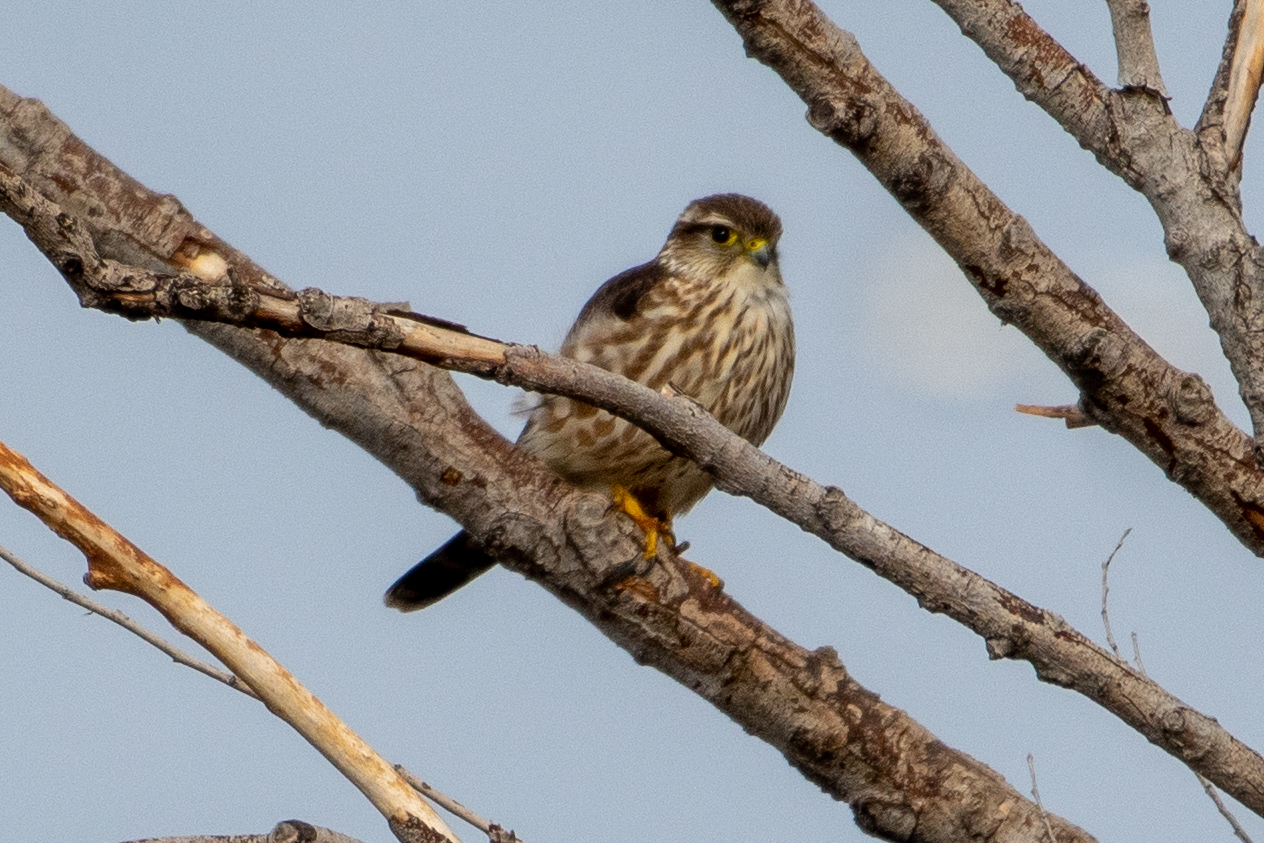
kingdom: Animalia
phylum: Chordata
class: Aves
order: Falconiformes
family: Falconidae
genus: Falco
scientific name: Falco columbarius
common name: Merlin
